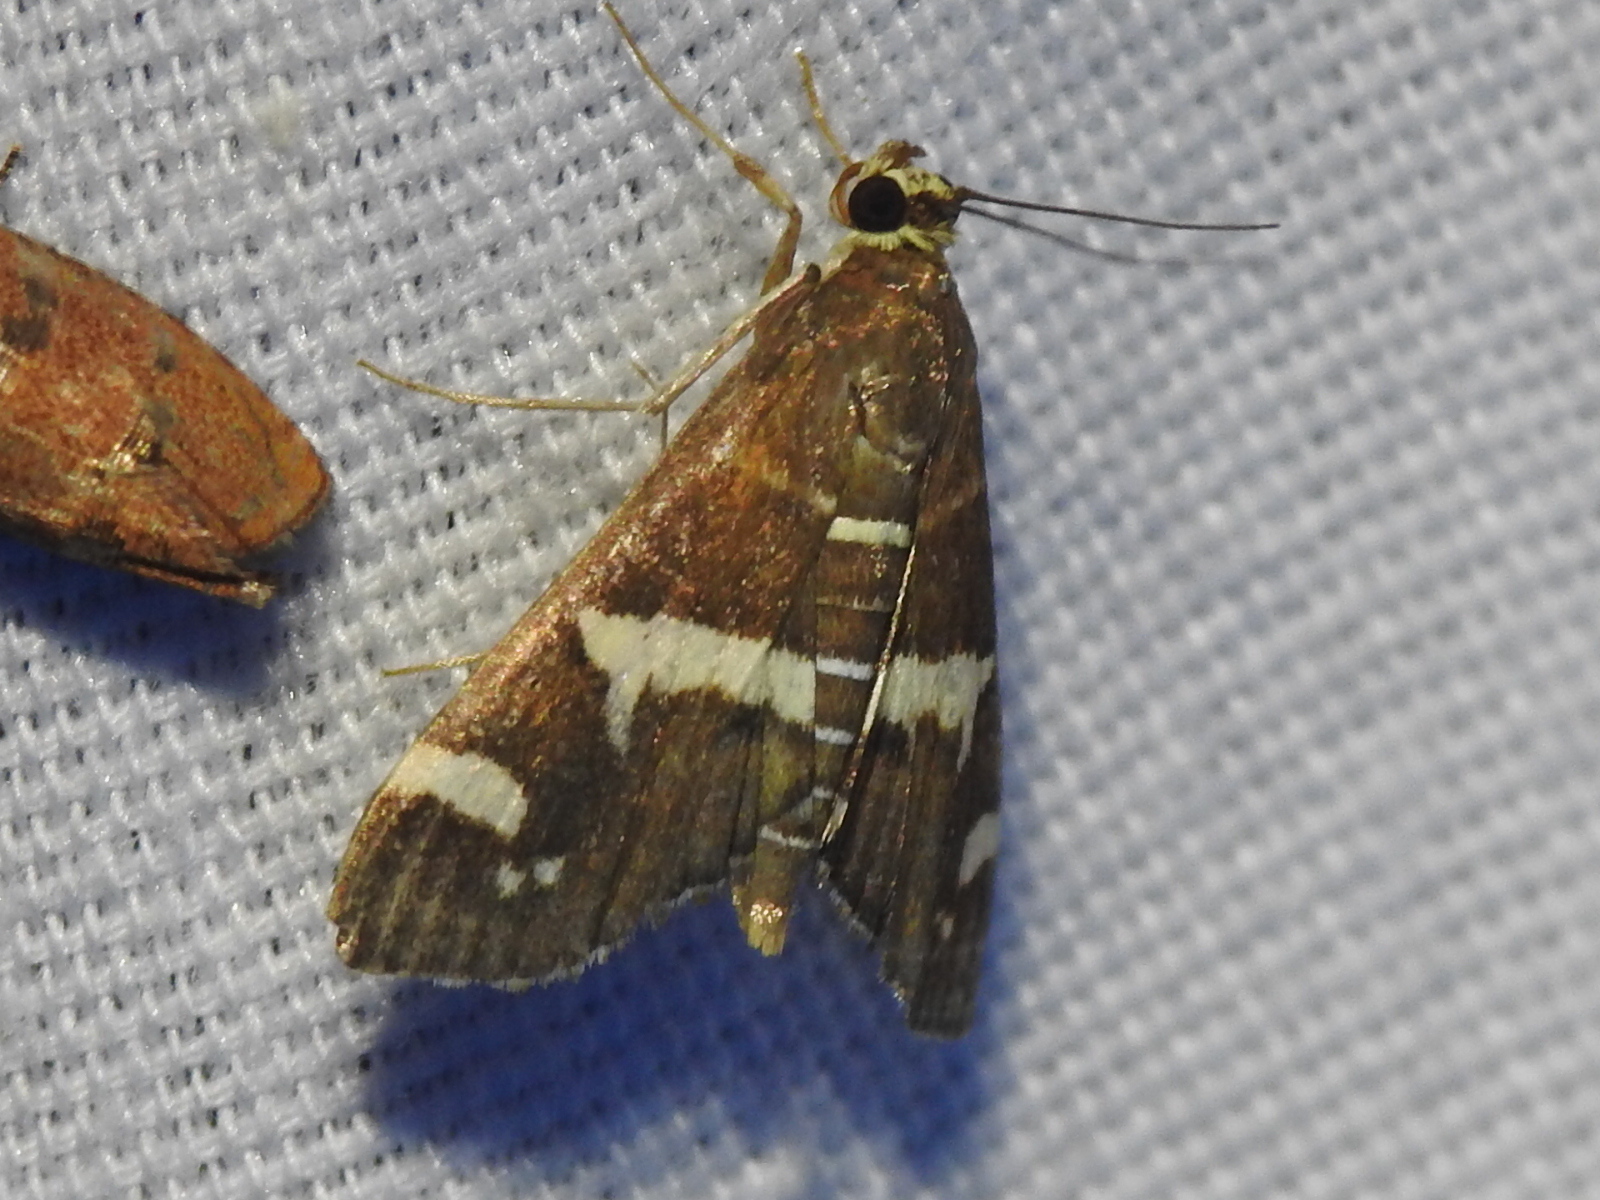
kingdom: Animalia
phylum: Arthropoda
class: Insecta
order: Lepidoptera
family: Crambidae
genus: Spoladea
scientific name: Spoladea recurvalis
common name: Beet webworm moth
